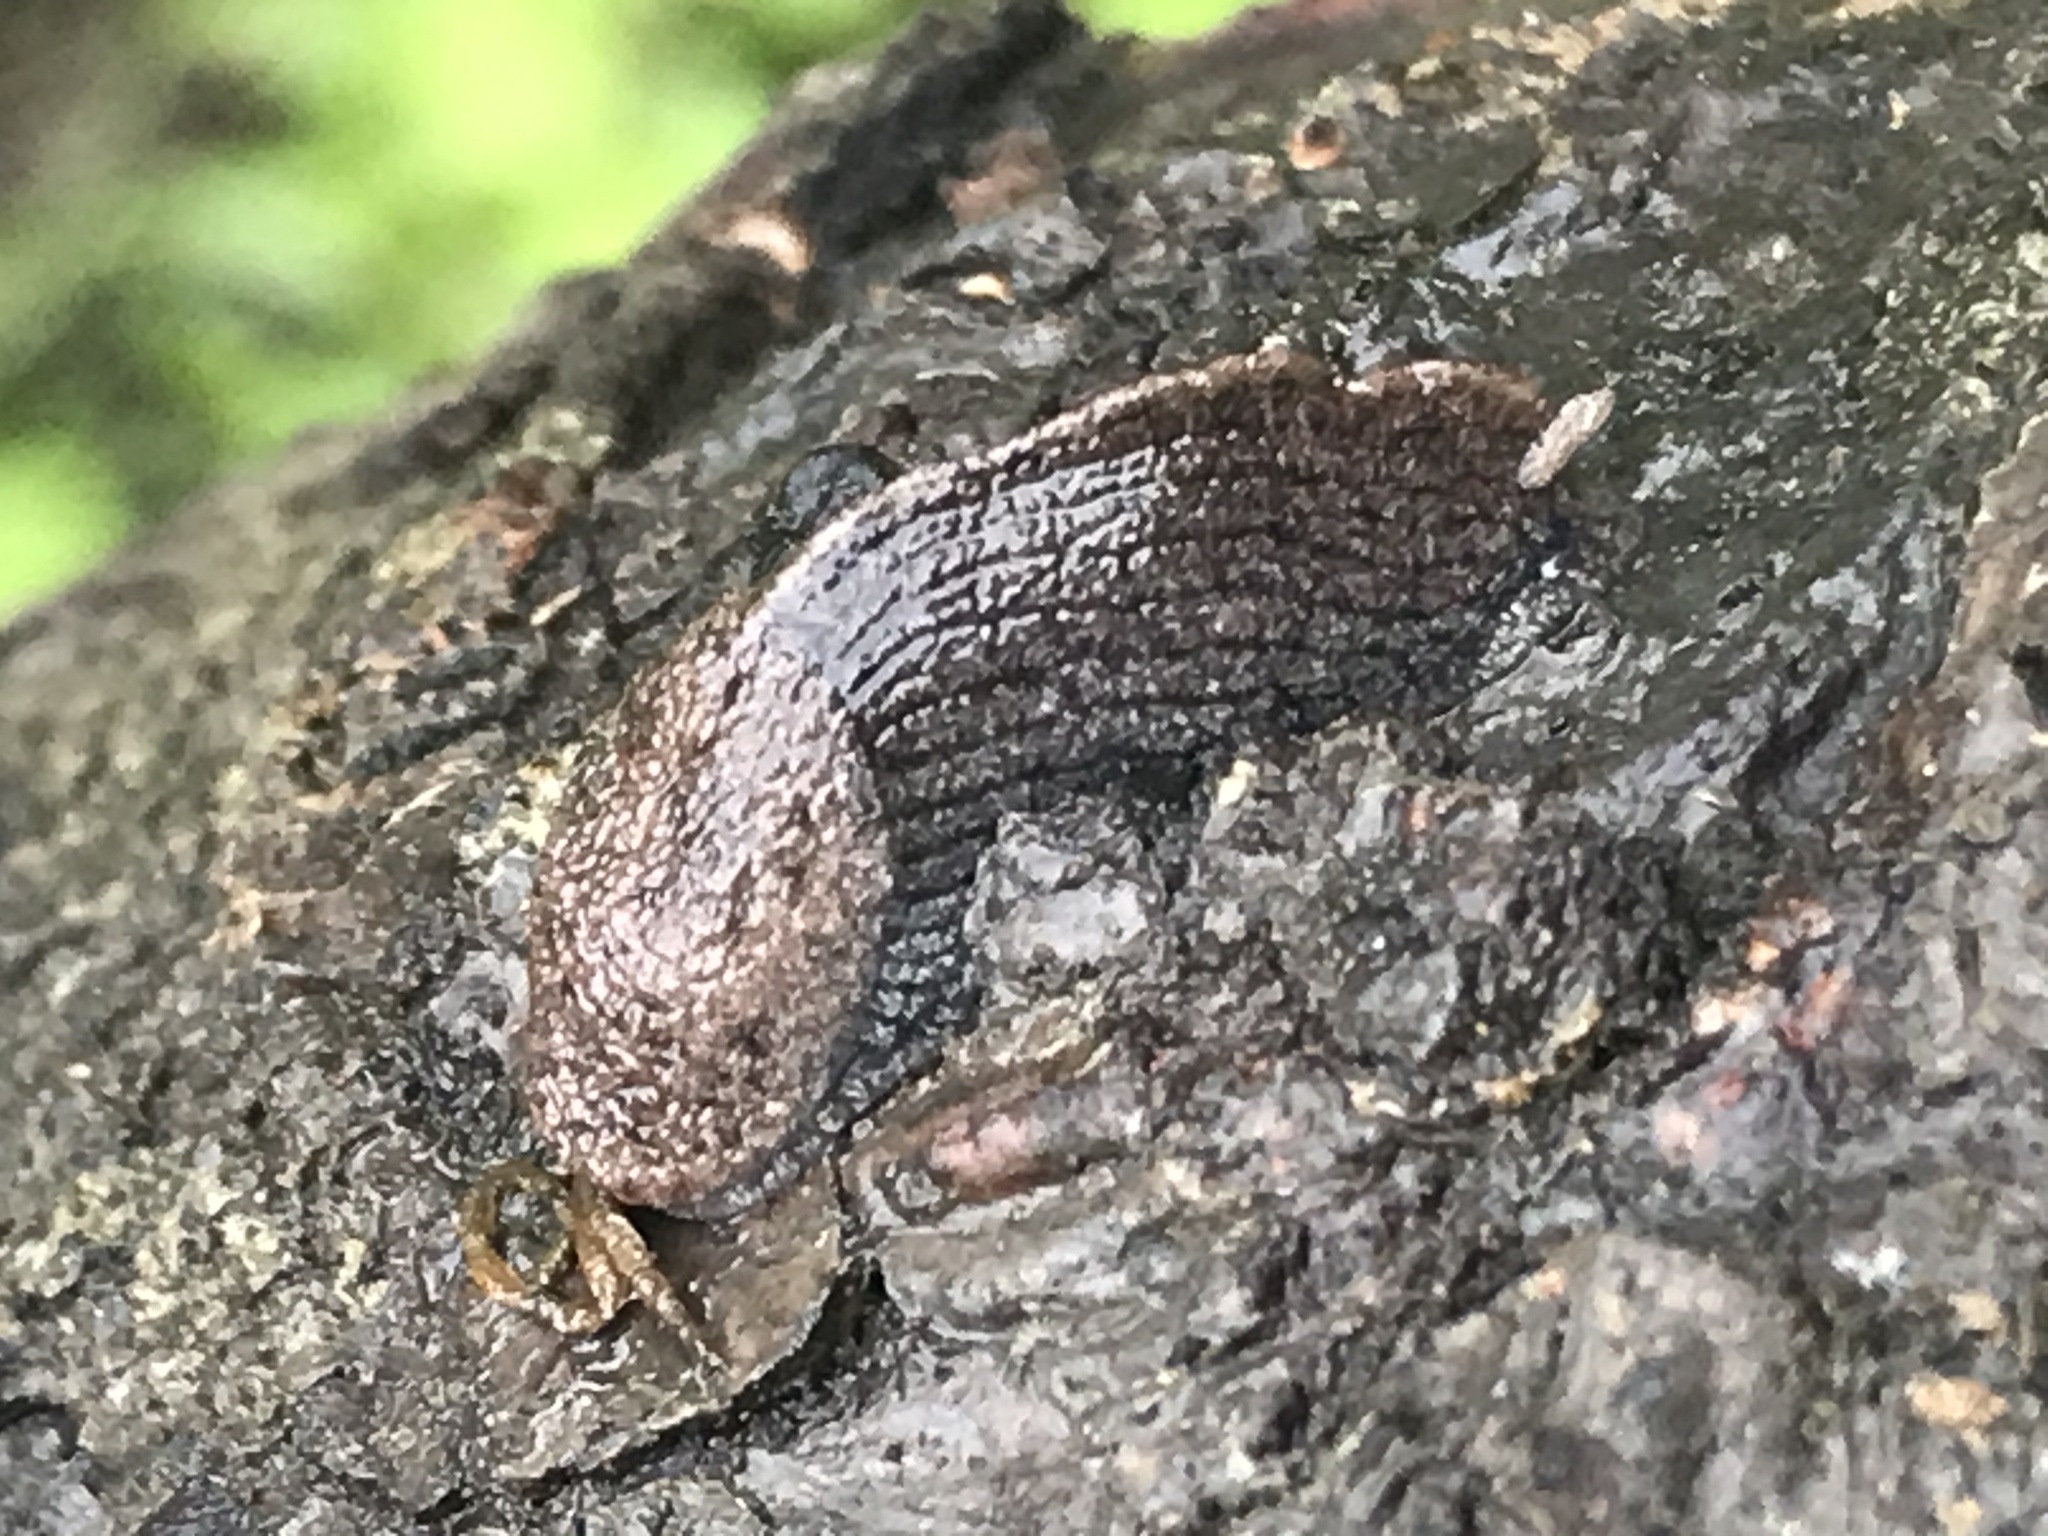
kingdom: Animalia
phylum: Mollusca
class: Gastropoda
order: Stylommatophora
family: Ariolimacidae
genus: Hesperarion
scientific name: Hesperarion niger
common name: Black western slug
